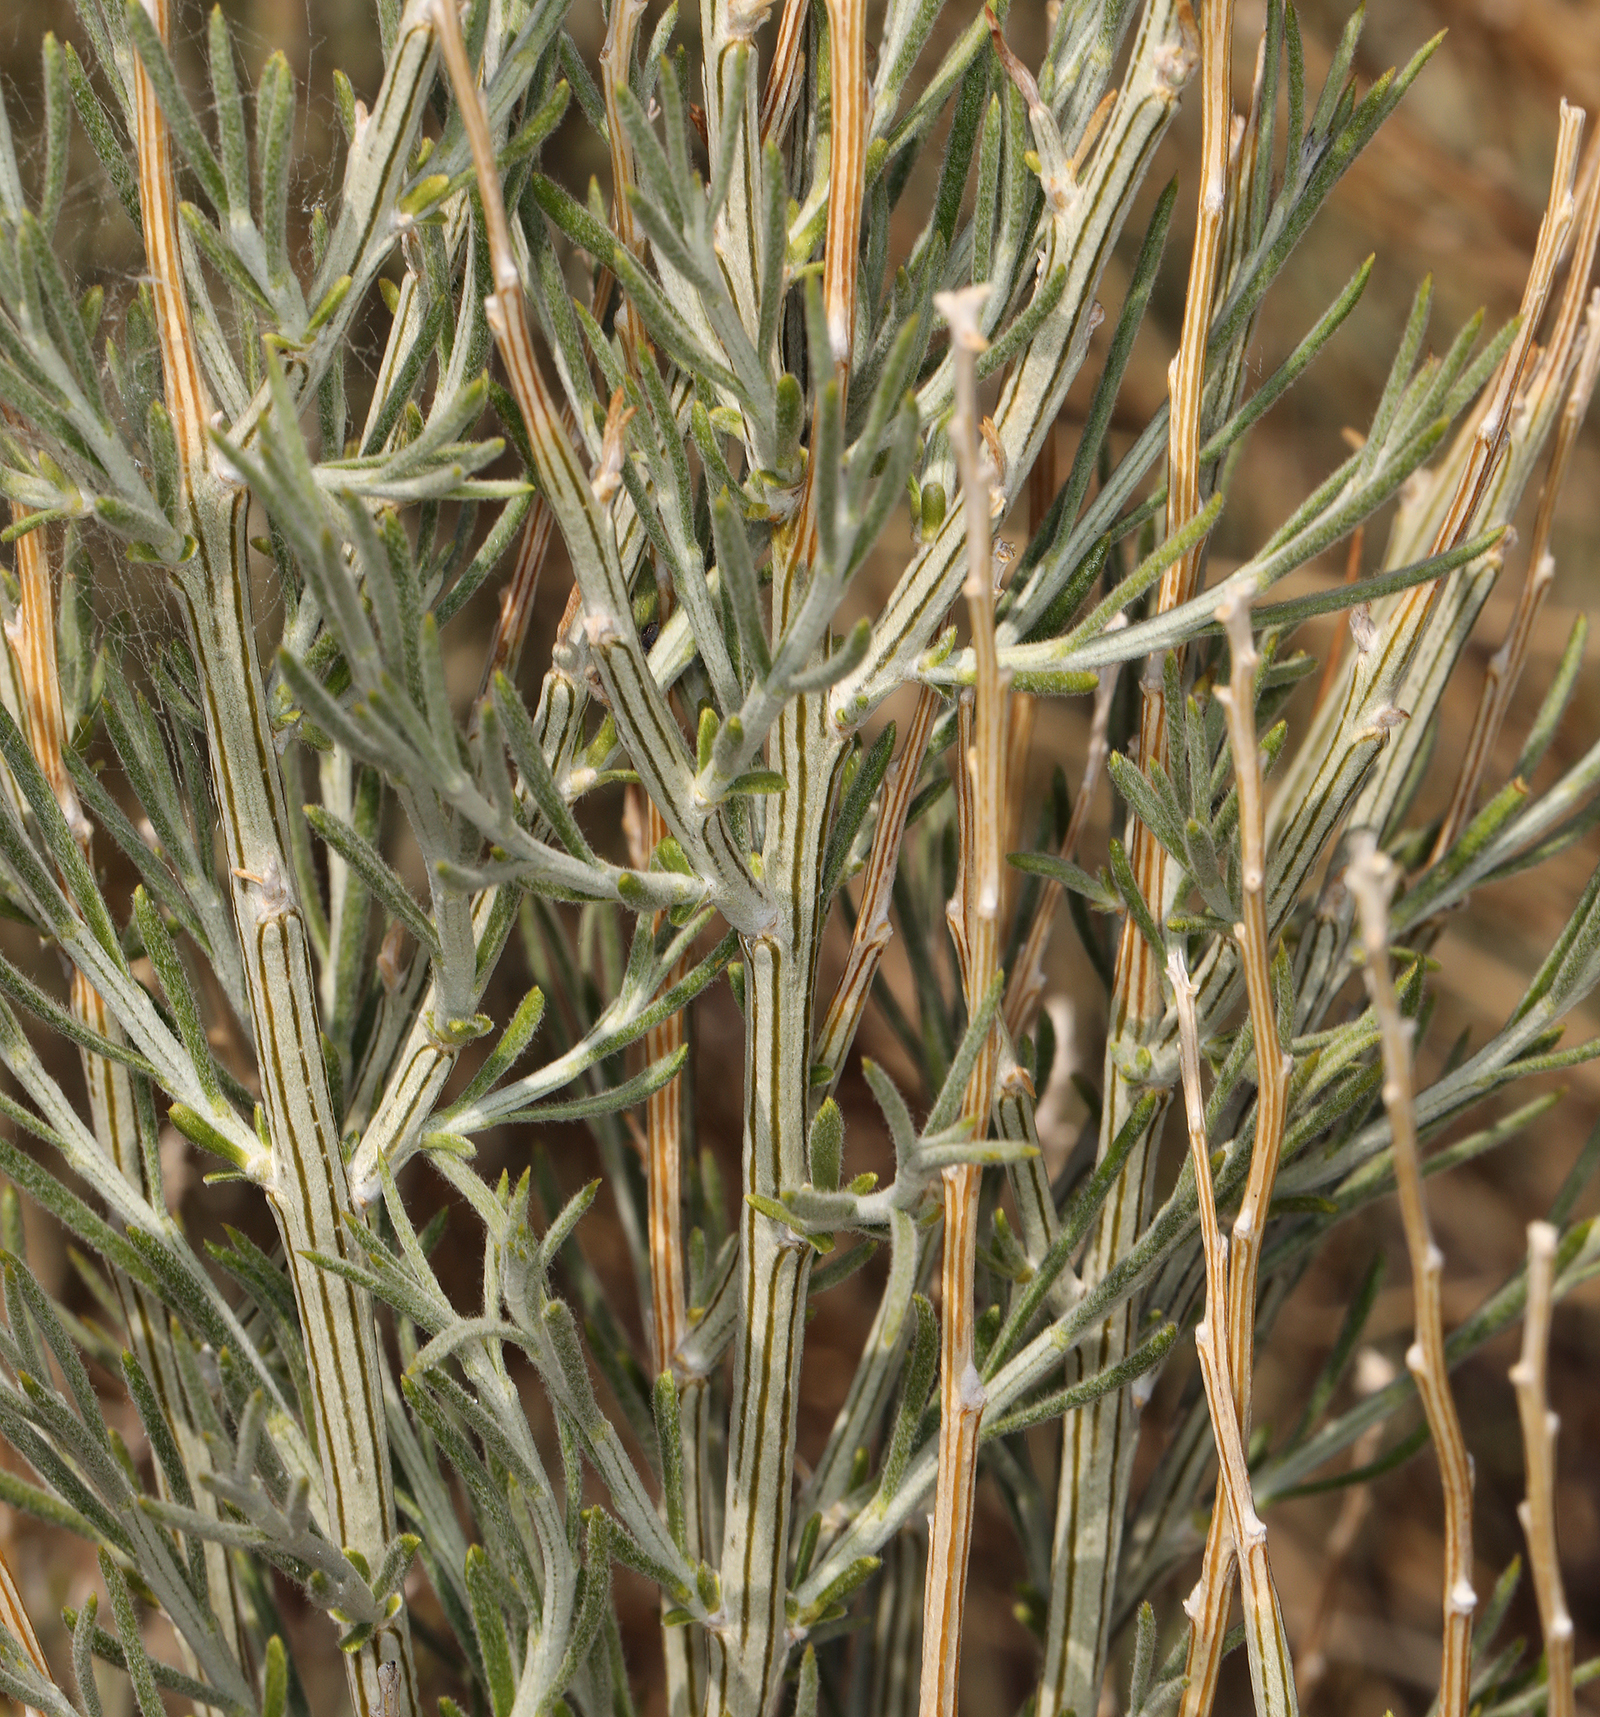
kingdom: Plantae
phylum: Tracheophyta
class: Magnoliopsida
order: Asterales
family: Asteraceae
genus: Lepidospartum
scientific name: Lepidospartum latisquamum
